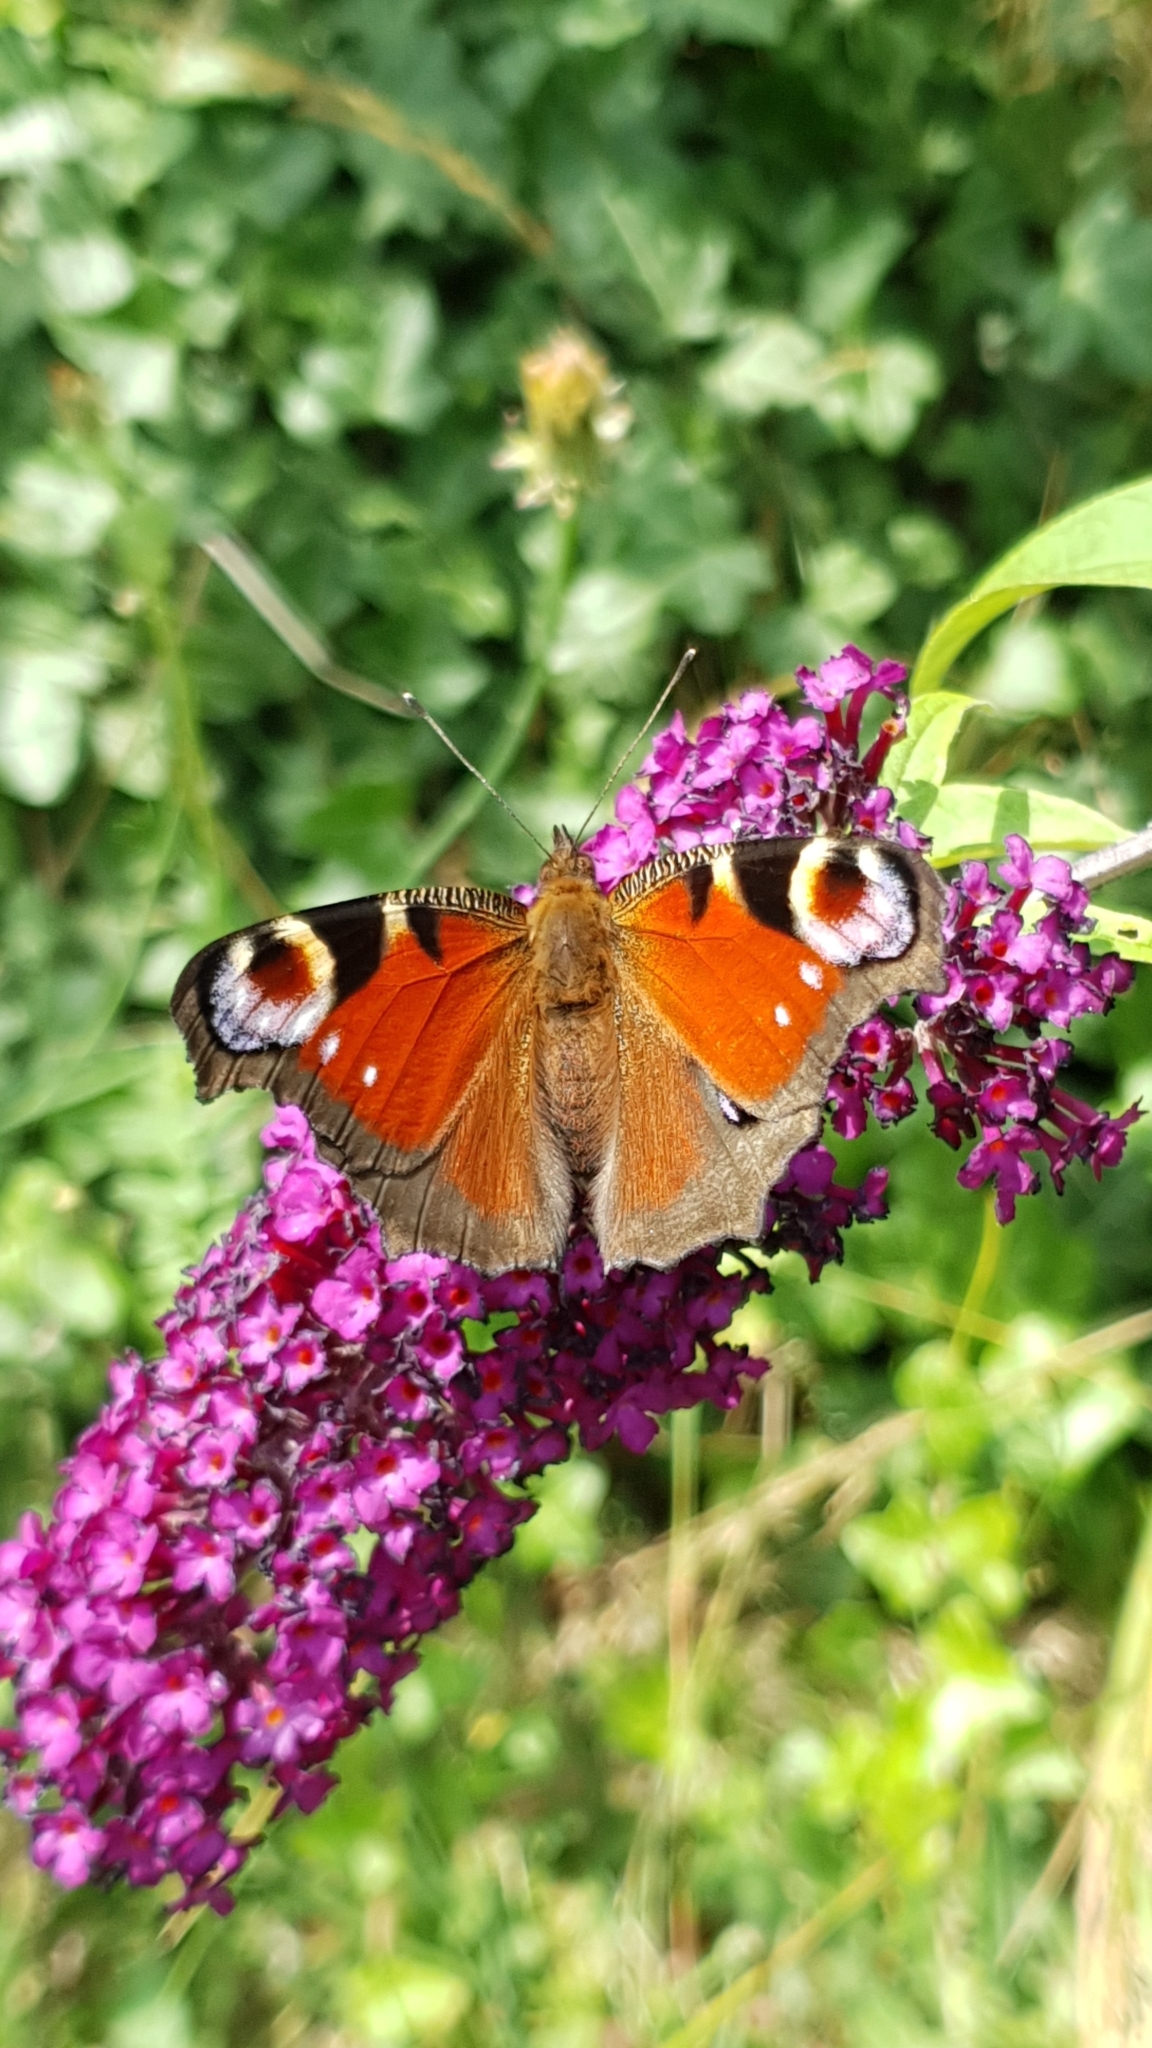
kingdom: Animalia
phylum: Arthropoda
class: Insecta
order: Lepidoptera
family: Nymphalidae
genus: Aglais
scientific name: Aglais io
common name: Peacock
